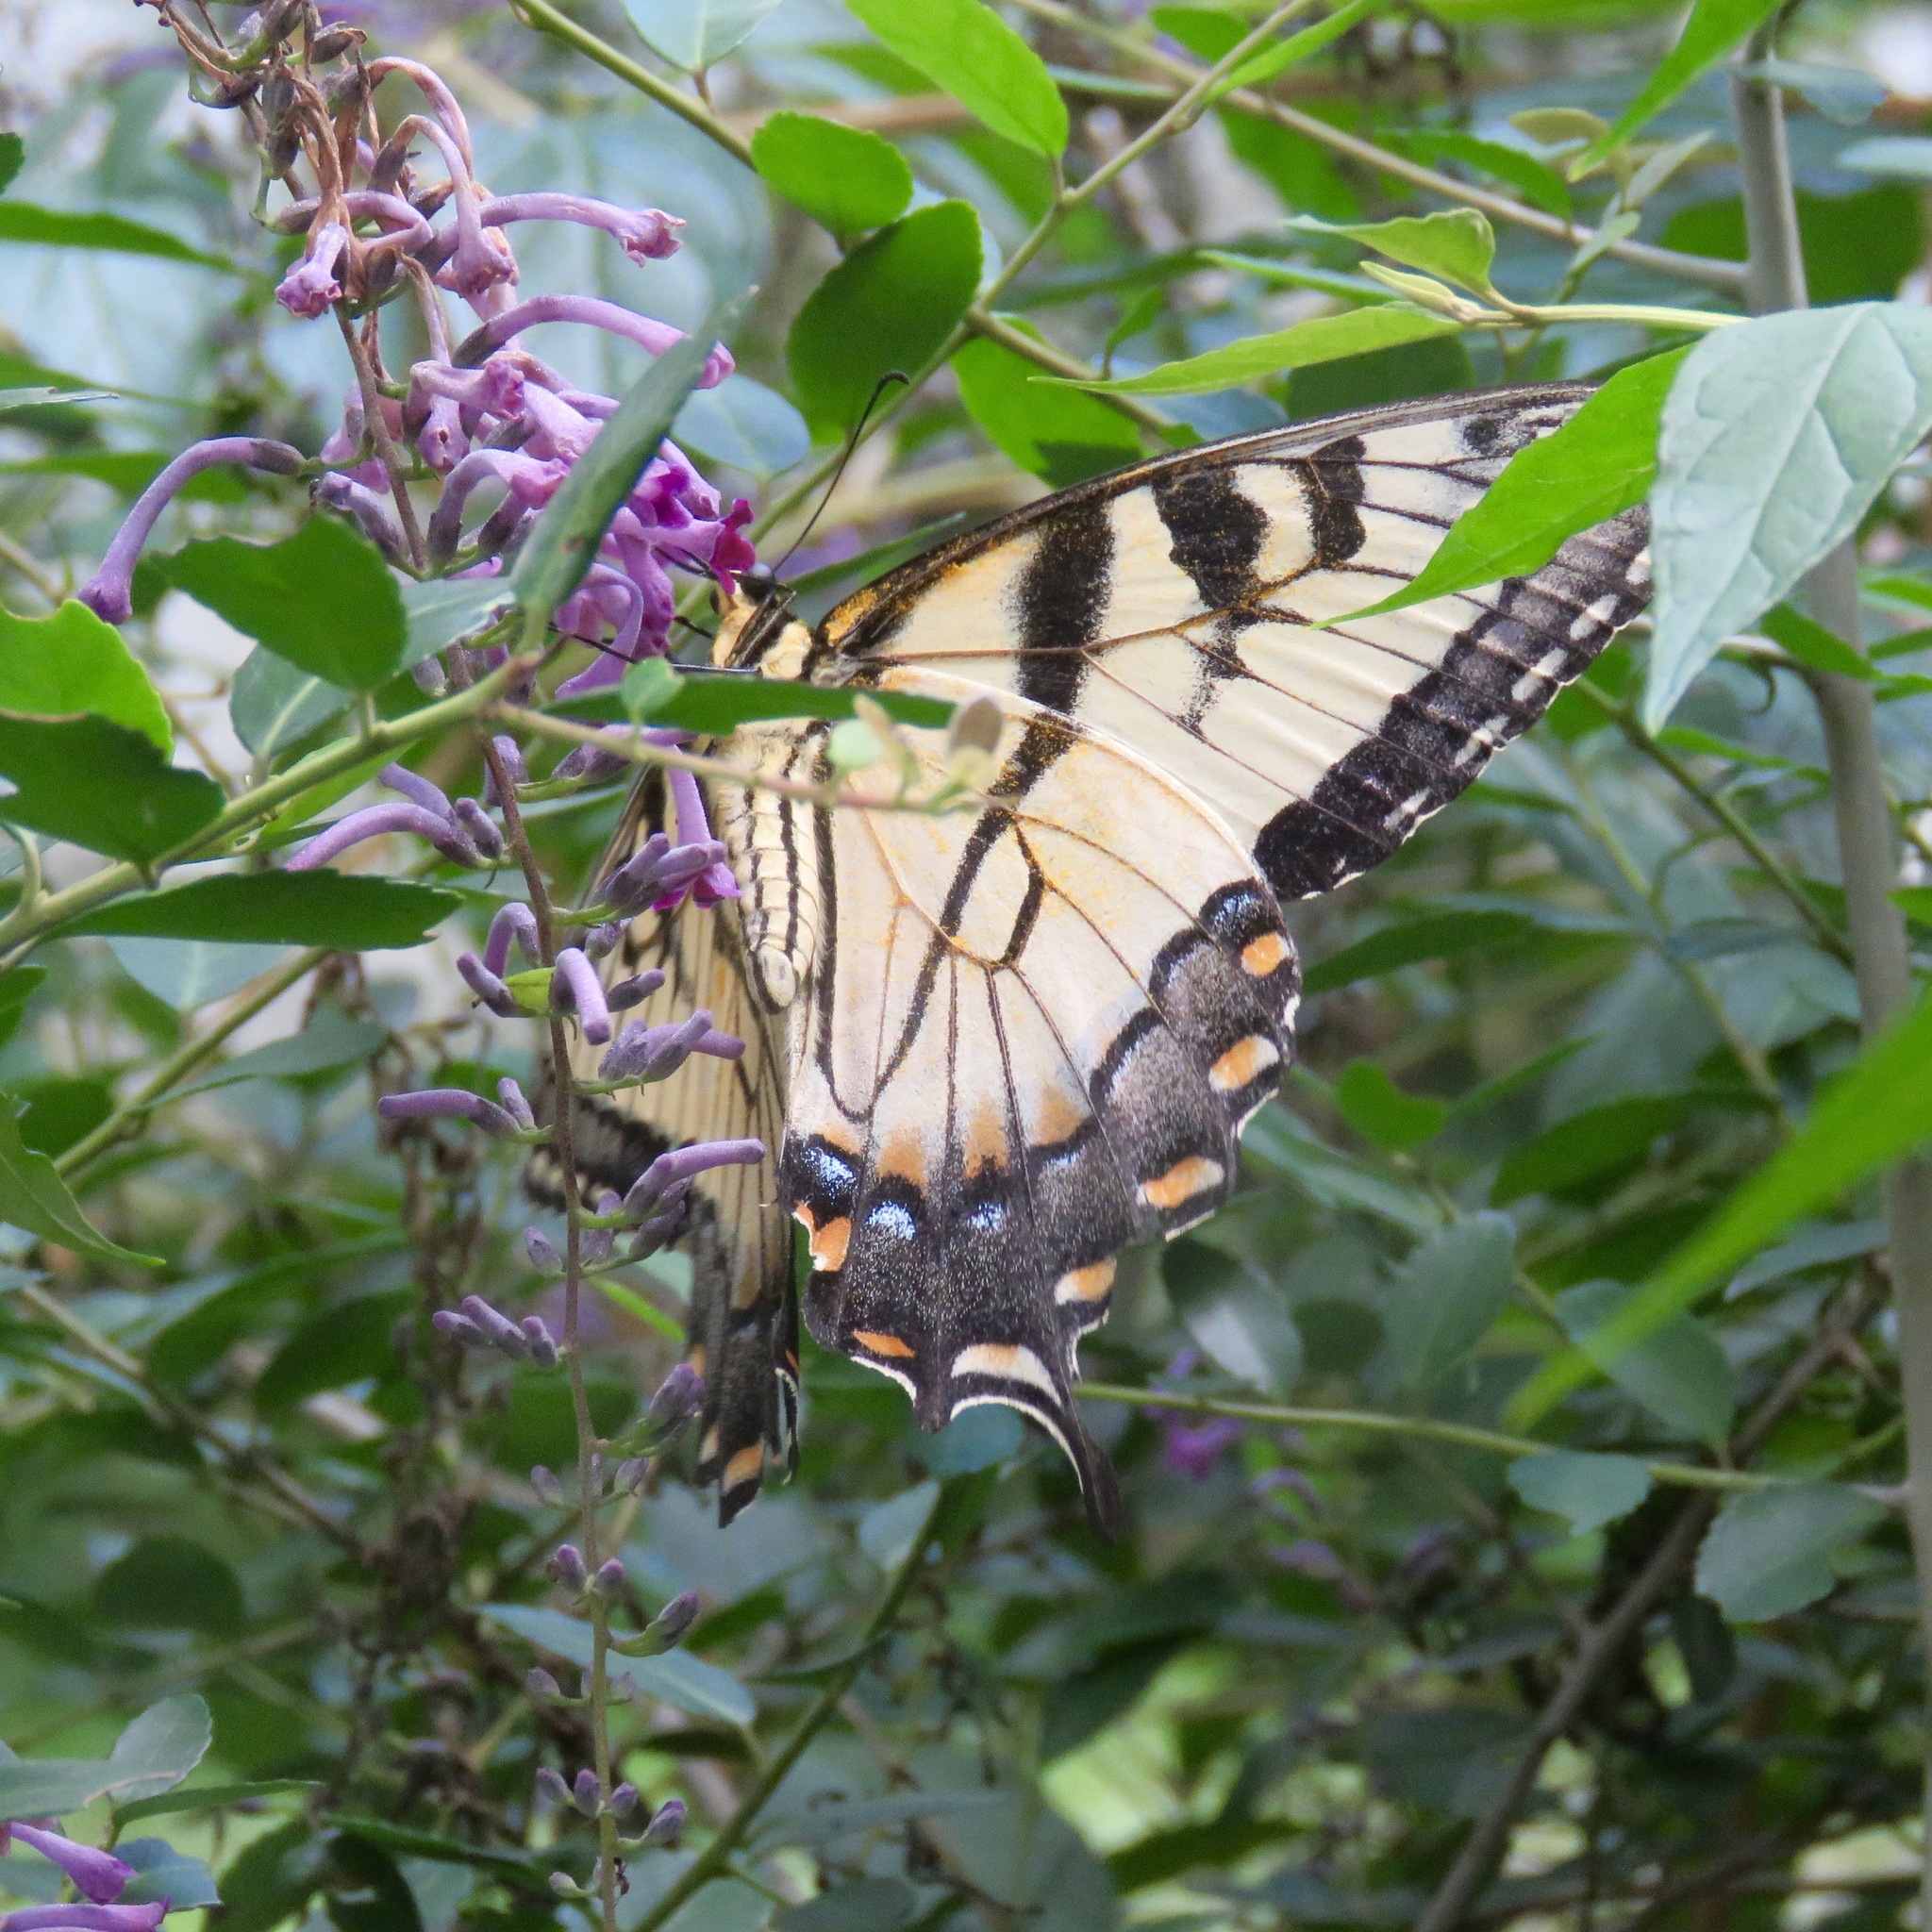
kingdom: Animalia
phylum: Arthropoda
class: Insecta
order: Lepidoptera
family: Papilionidae
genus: Papilio
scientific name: Papilio glaucus
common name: Tiger swallowtail
